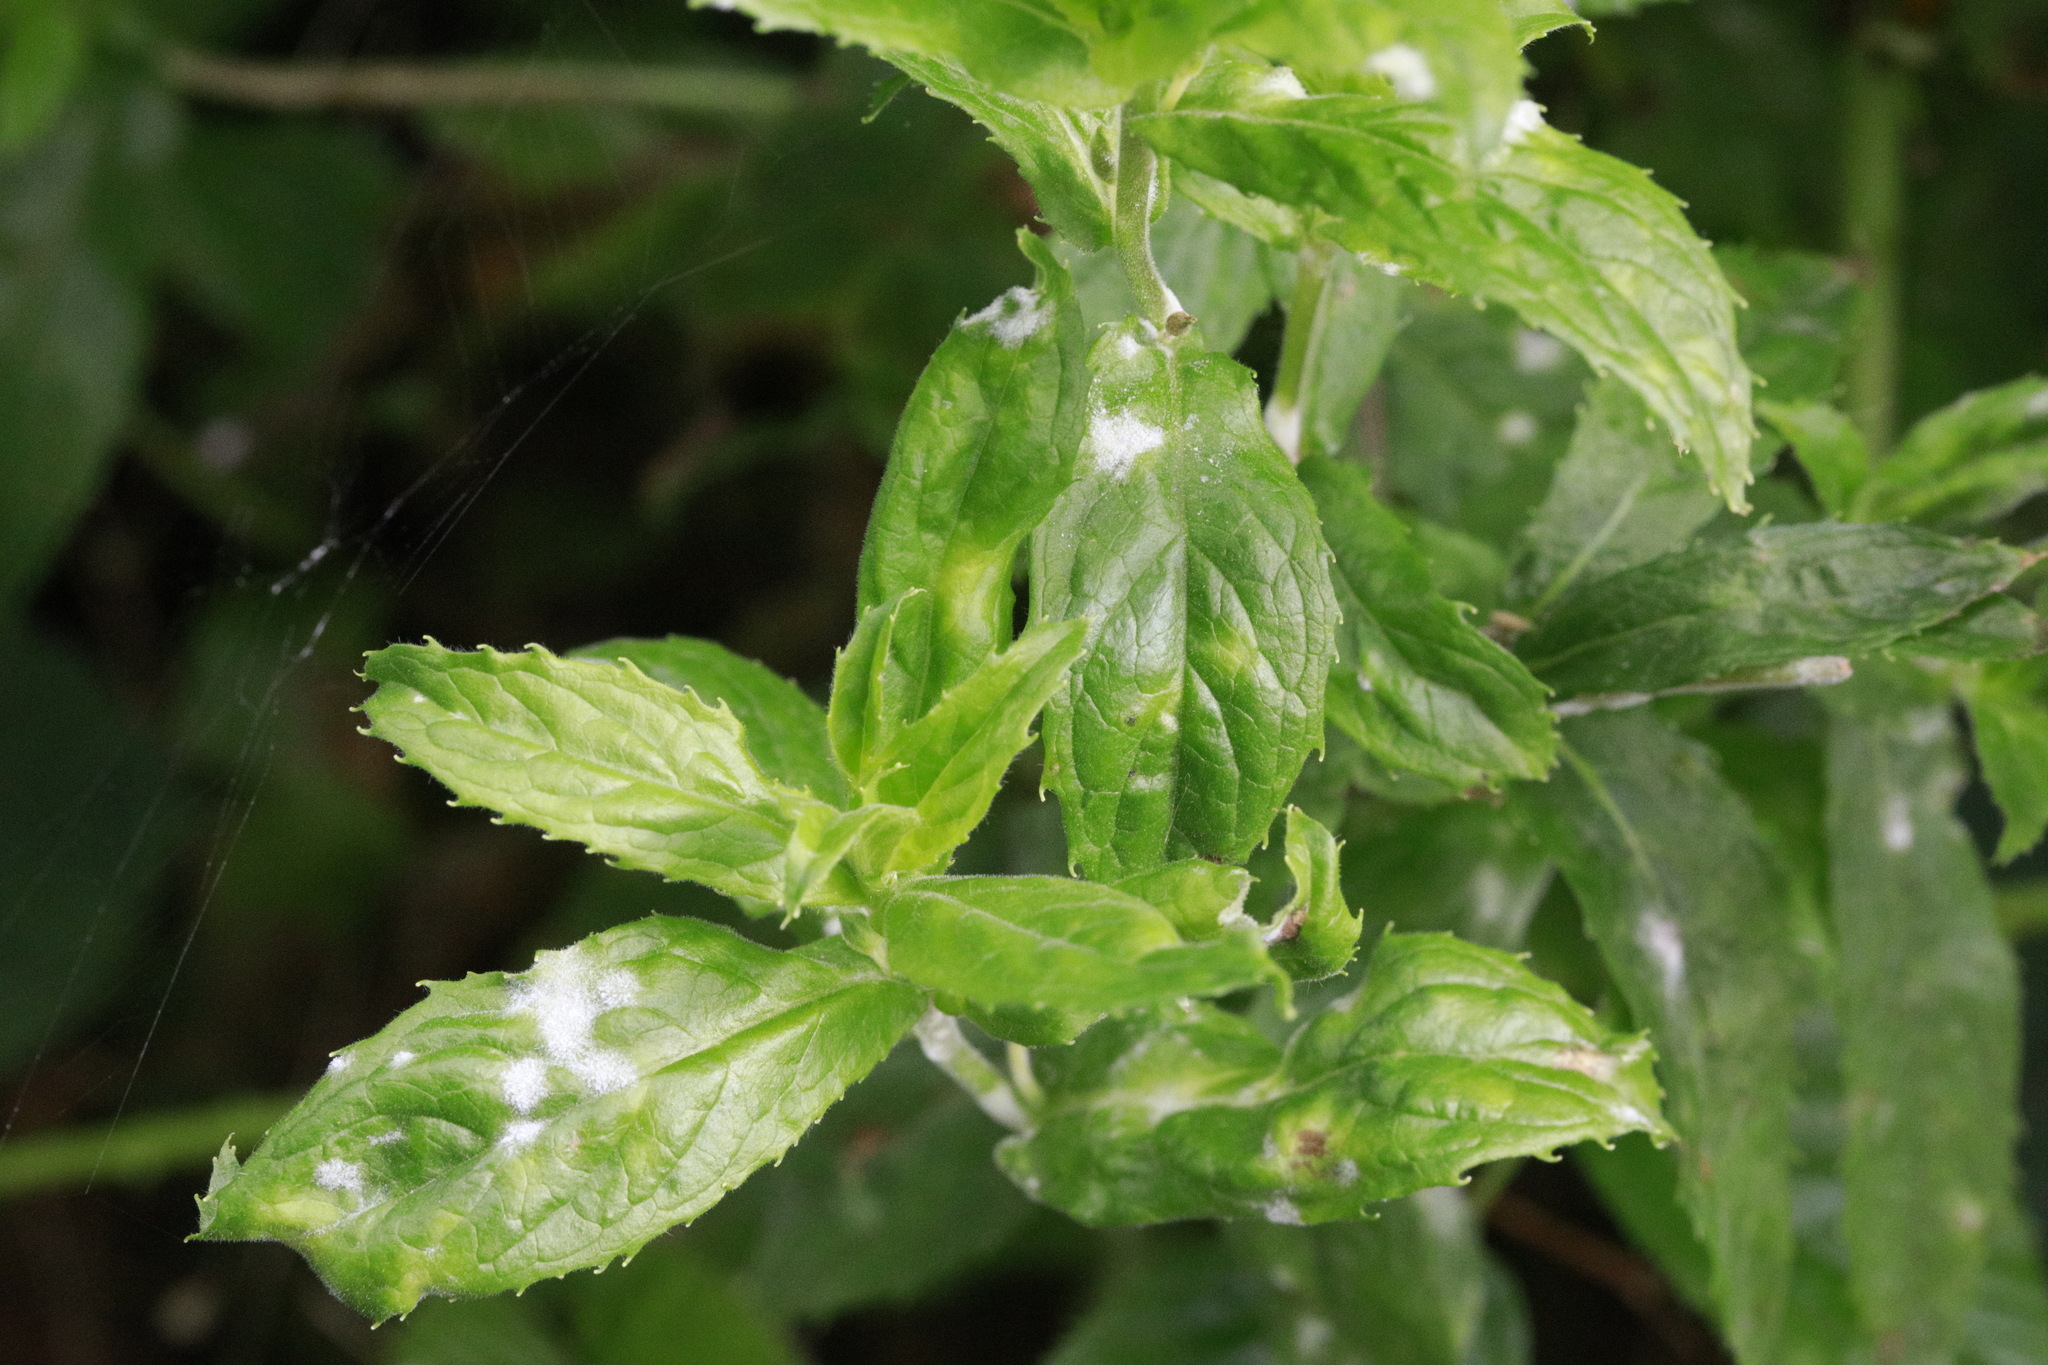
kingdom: Fungi
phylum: Ascomycota
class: Leotiomycetes
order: Helotiales
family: Erysiphaceae
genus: Podosphaera
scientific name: Podosphaera epilobii
